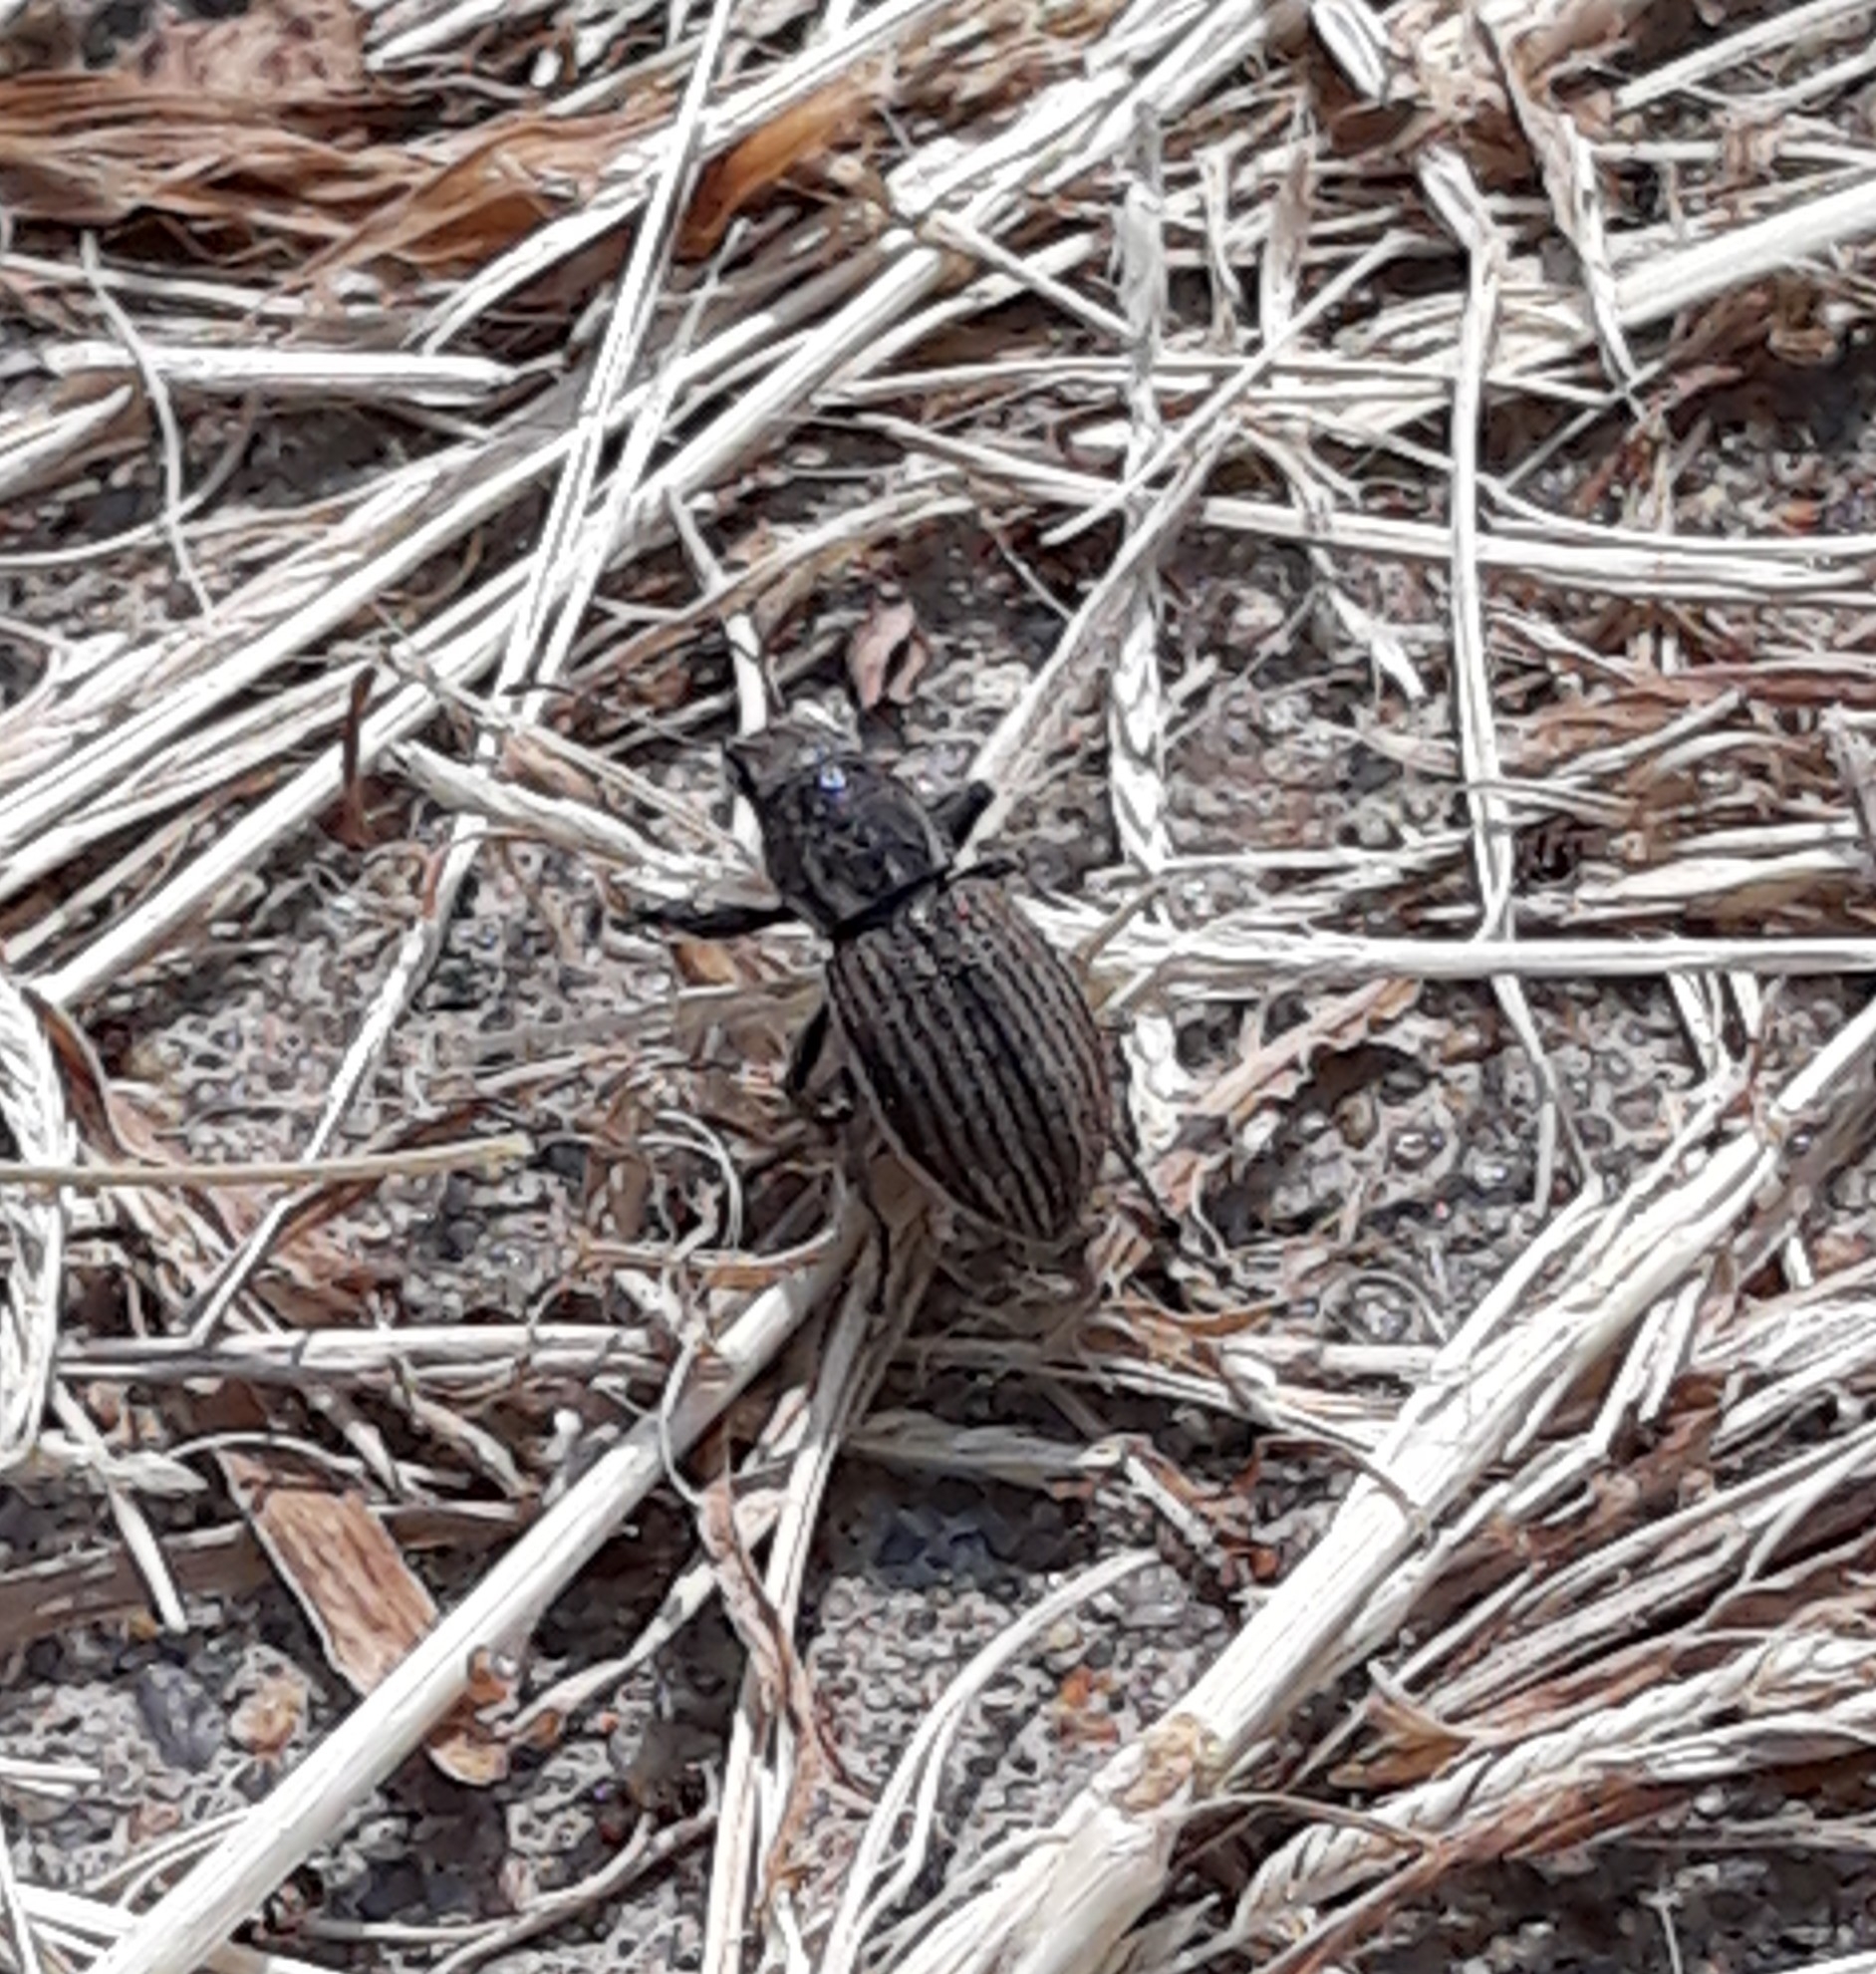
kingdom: Animalia
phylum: Arthropoda
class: Insecta
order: Coleoptera
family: Curculionidae
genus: Naupactus
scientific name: Naupactus leucoloma
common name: Whitefringed beetle
